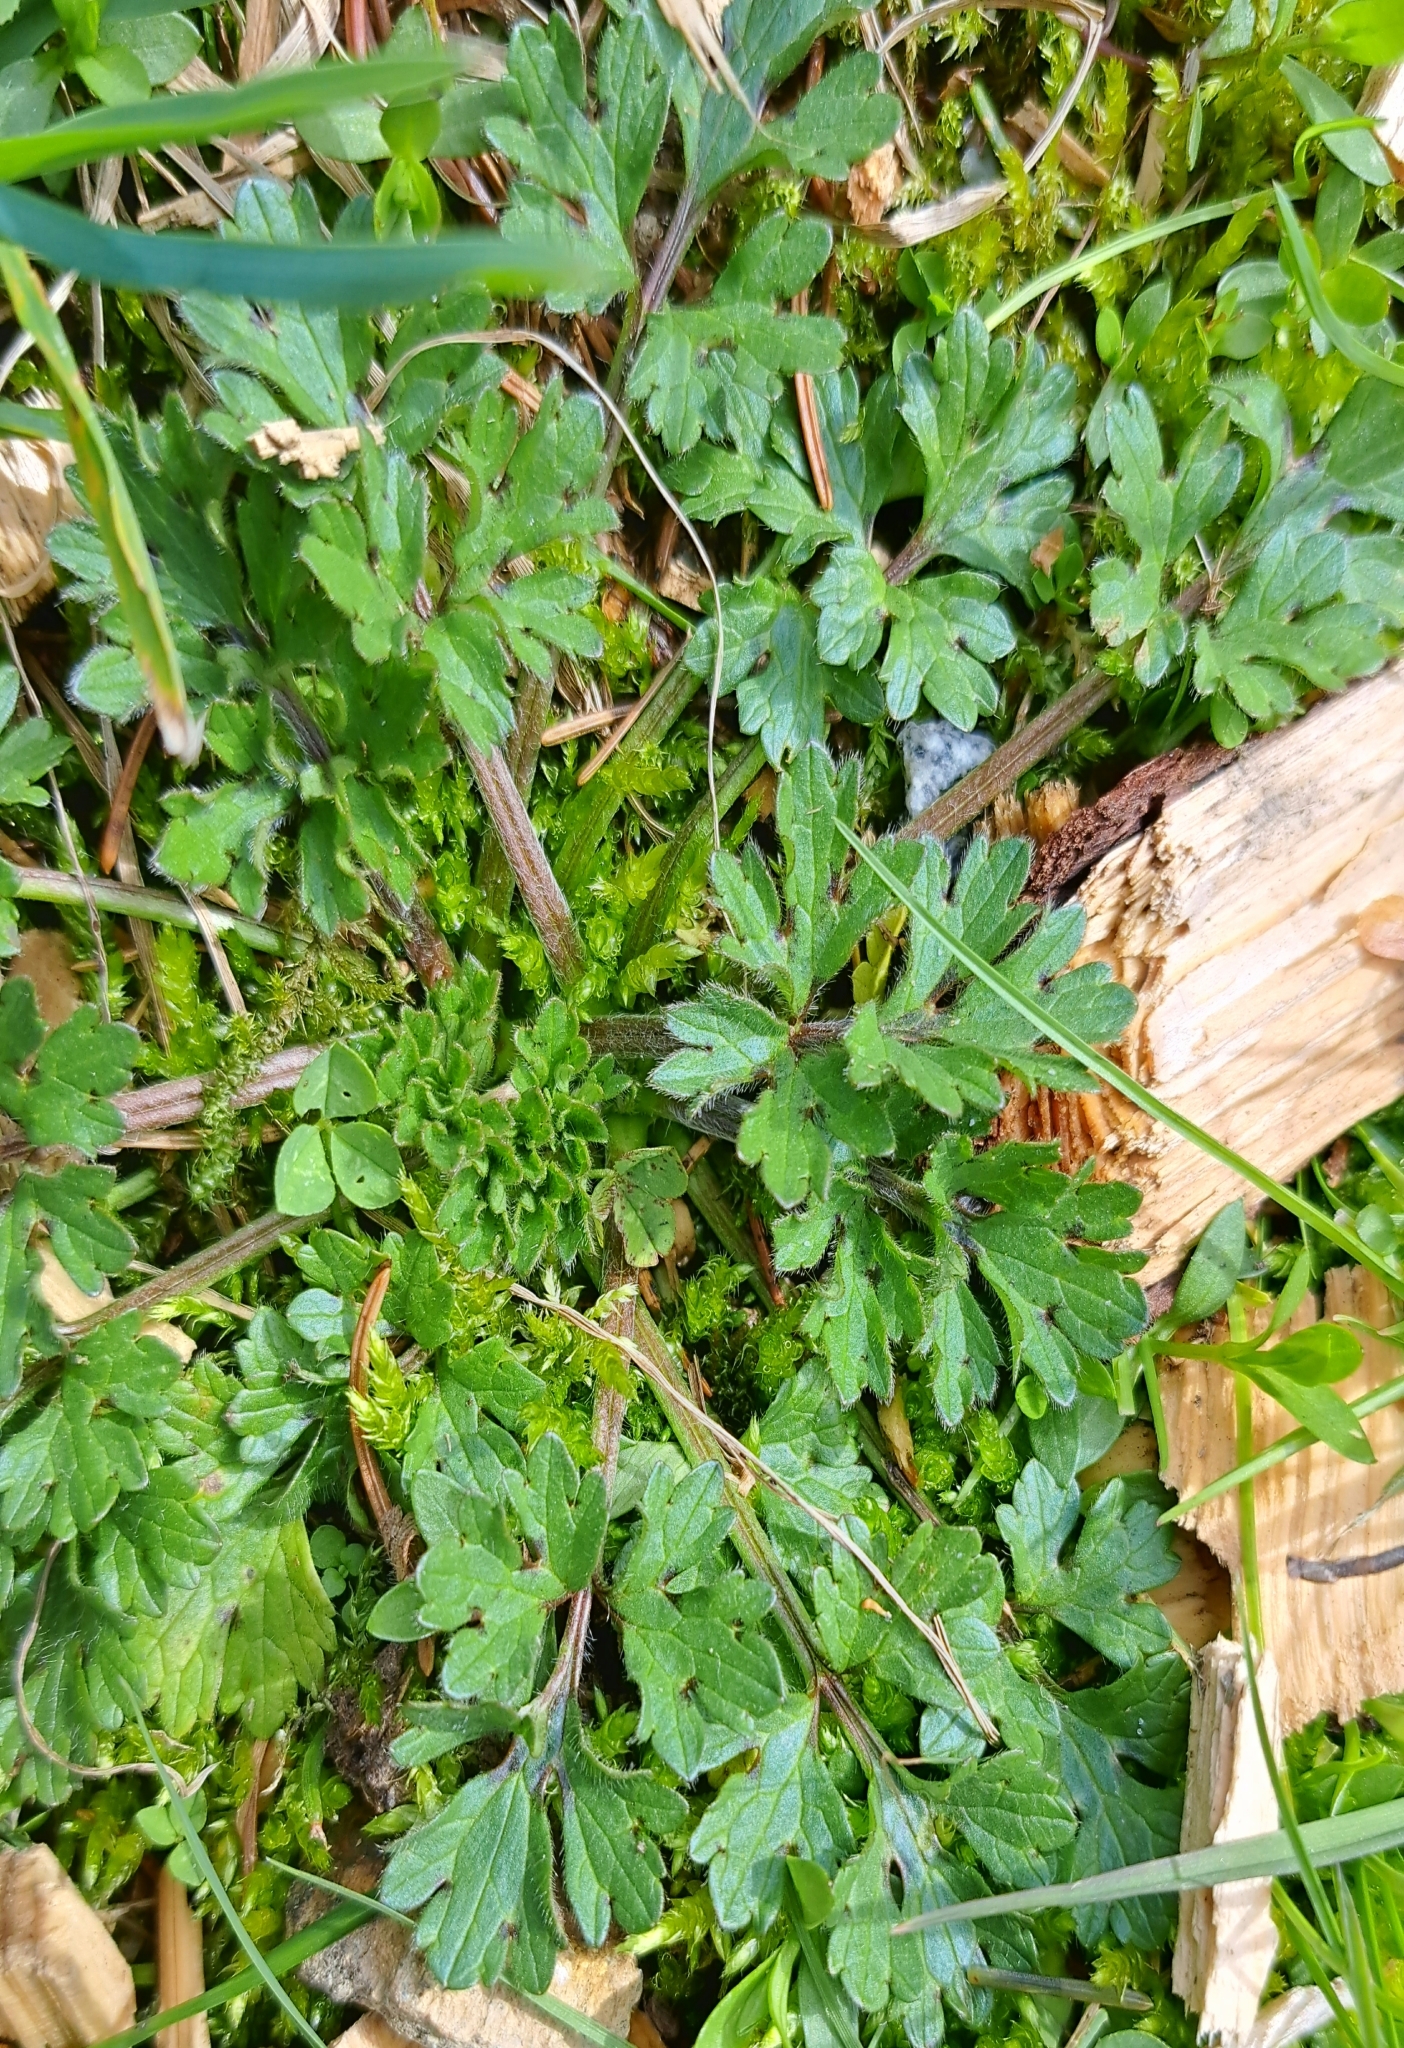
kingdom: Plantae
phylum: Tracheophyta
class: Magnoliopsida
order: Ranunculales
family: Ranunculaceae
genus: Ranunculus
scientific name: Ranunculus bulbosus
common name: Bulbous buttercup
